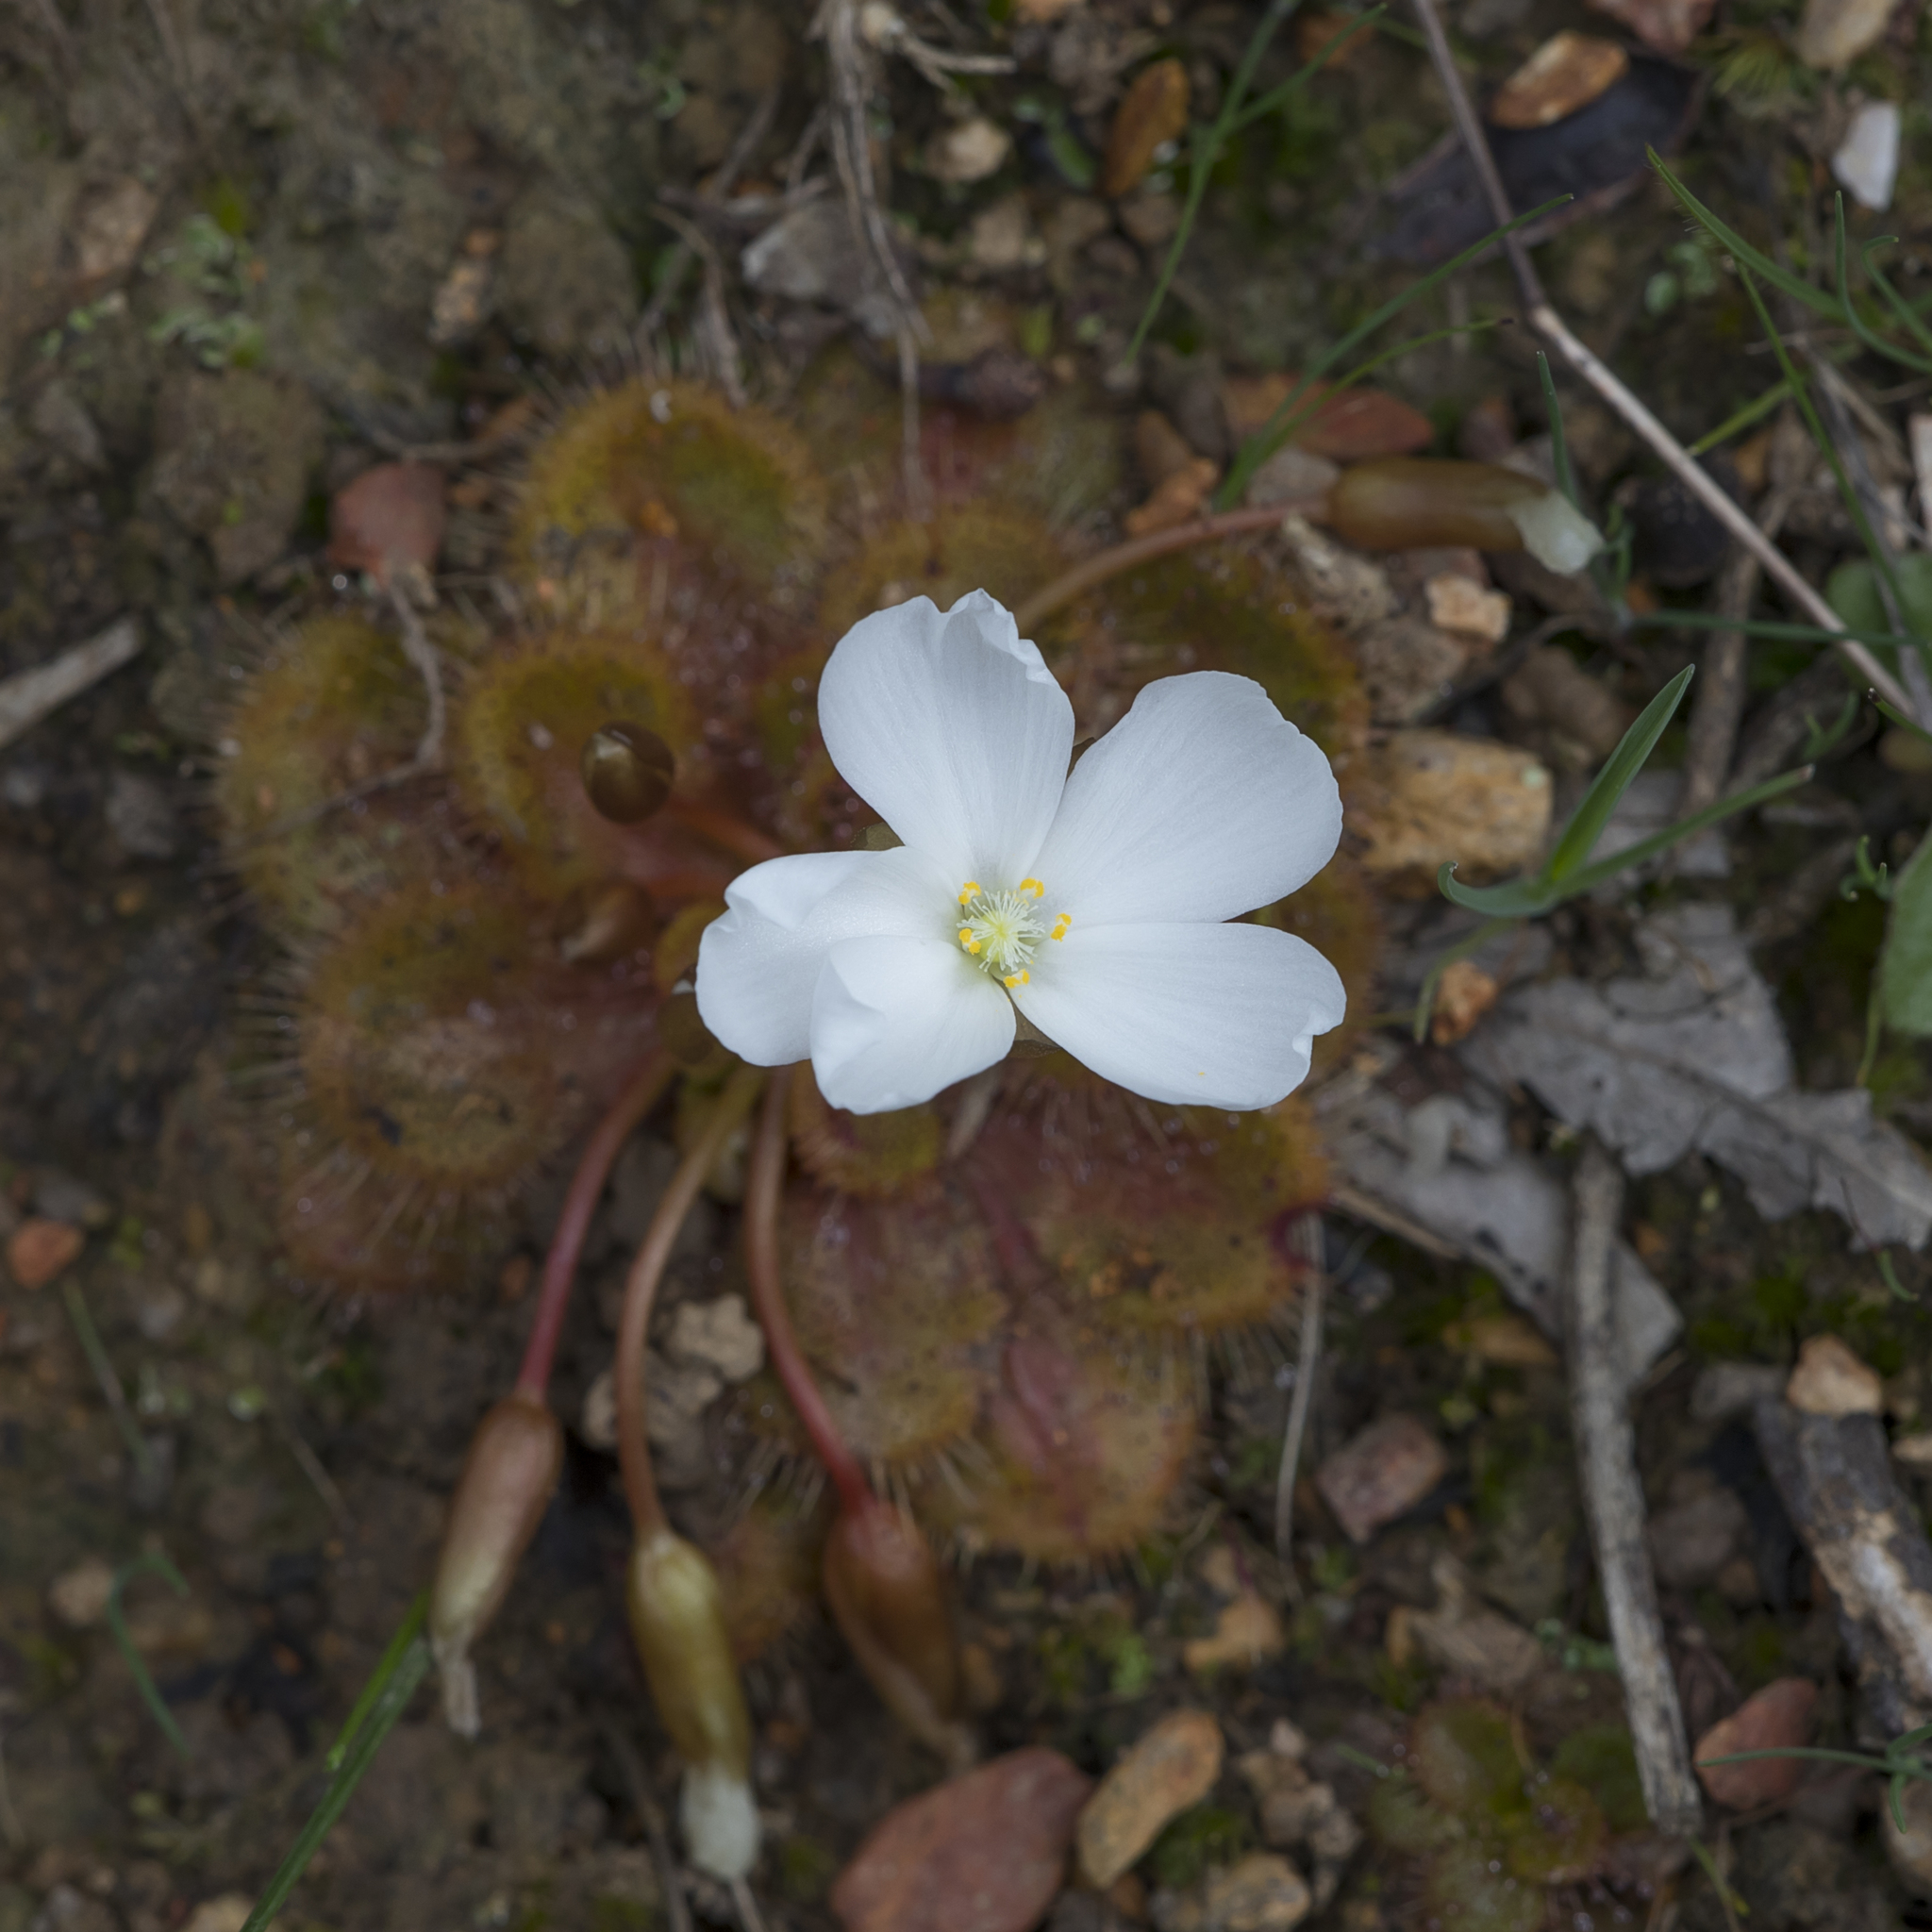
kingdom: Plantae
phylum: Tracheophyta
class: Magnoliopsida
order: Caryophyllales
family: Droseraceae
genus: Drosera
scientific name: Drosera whittakeri
